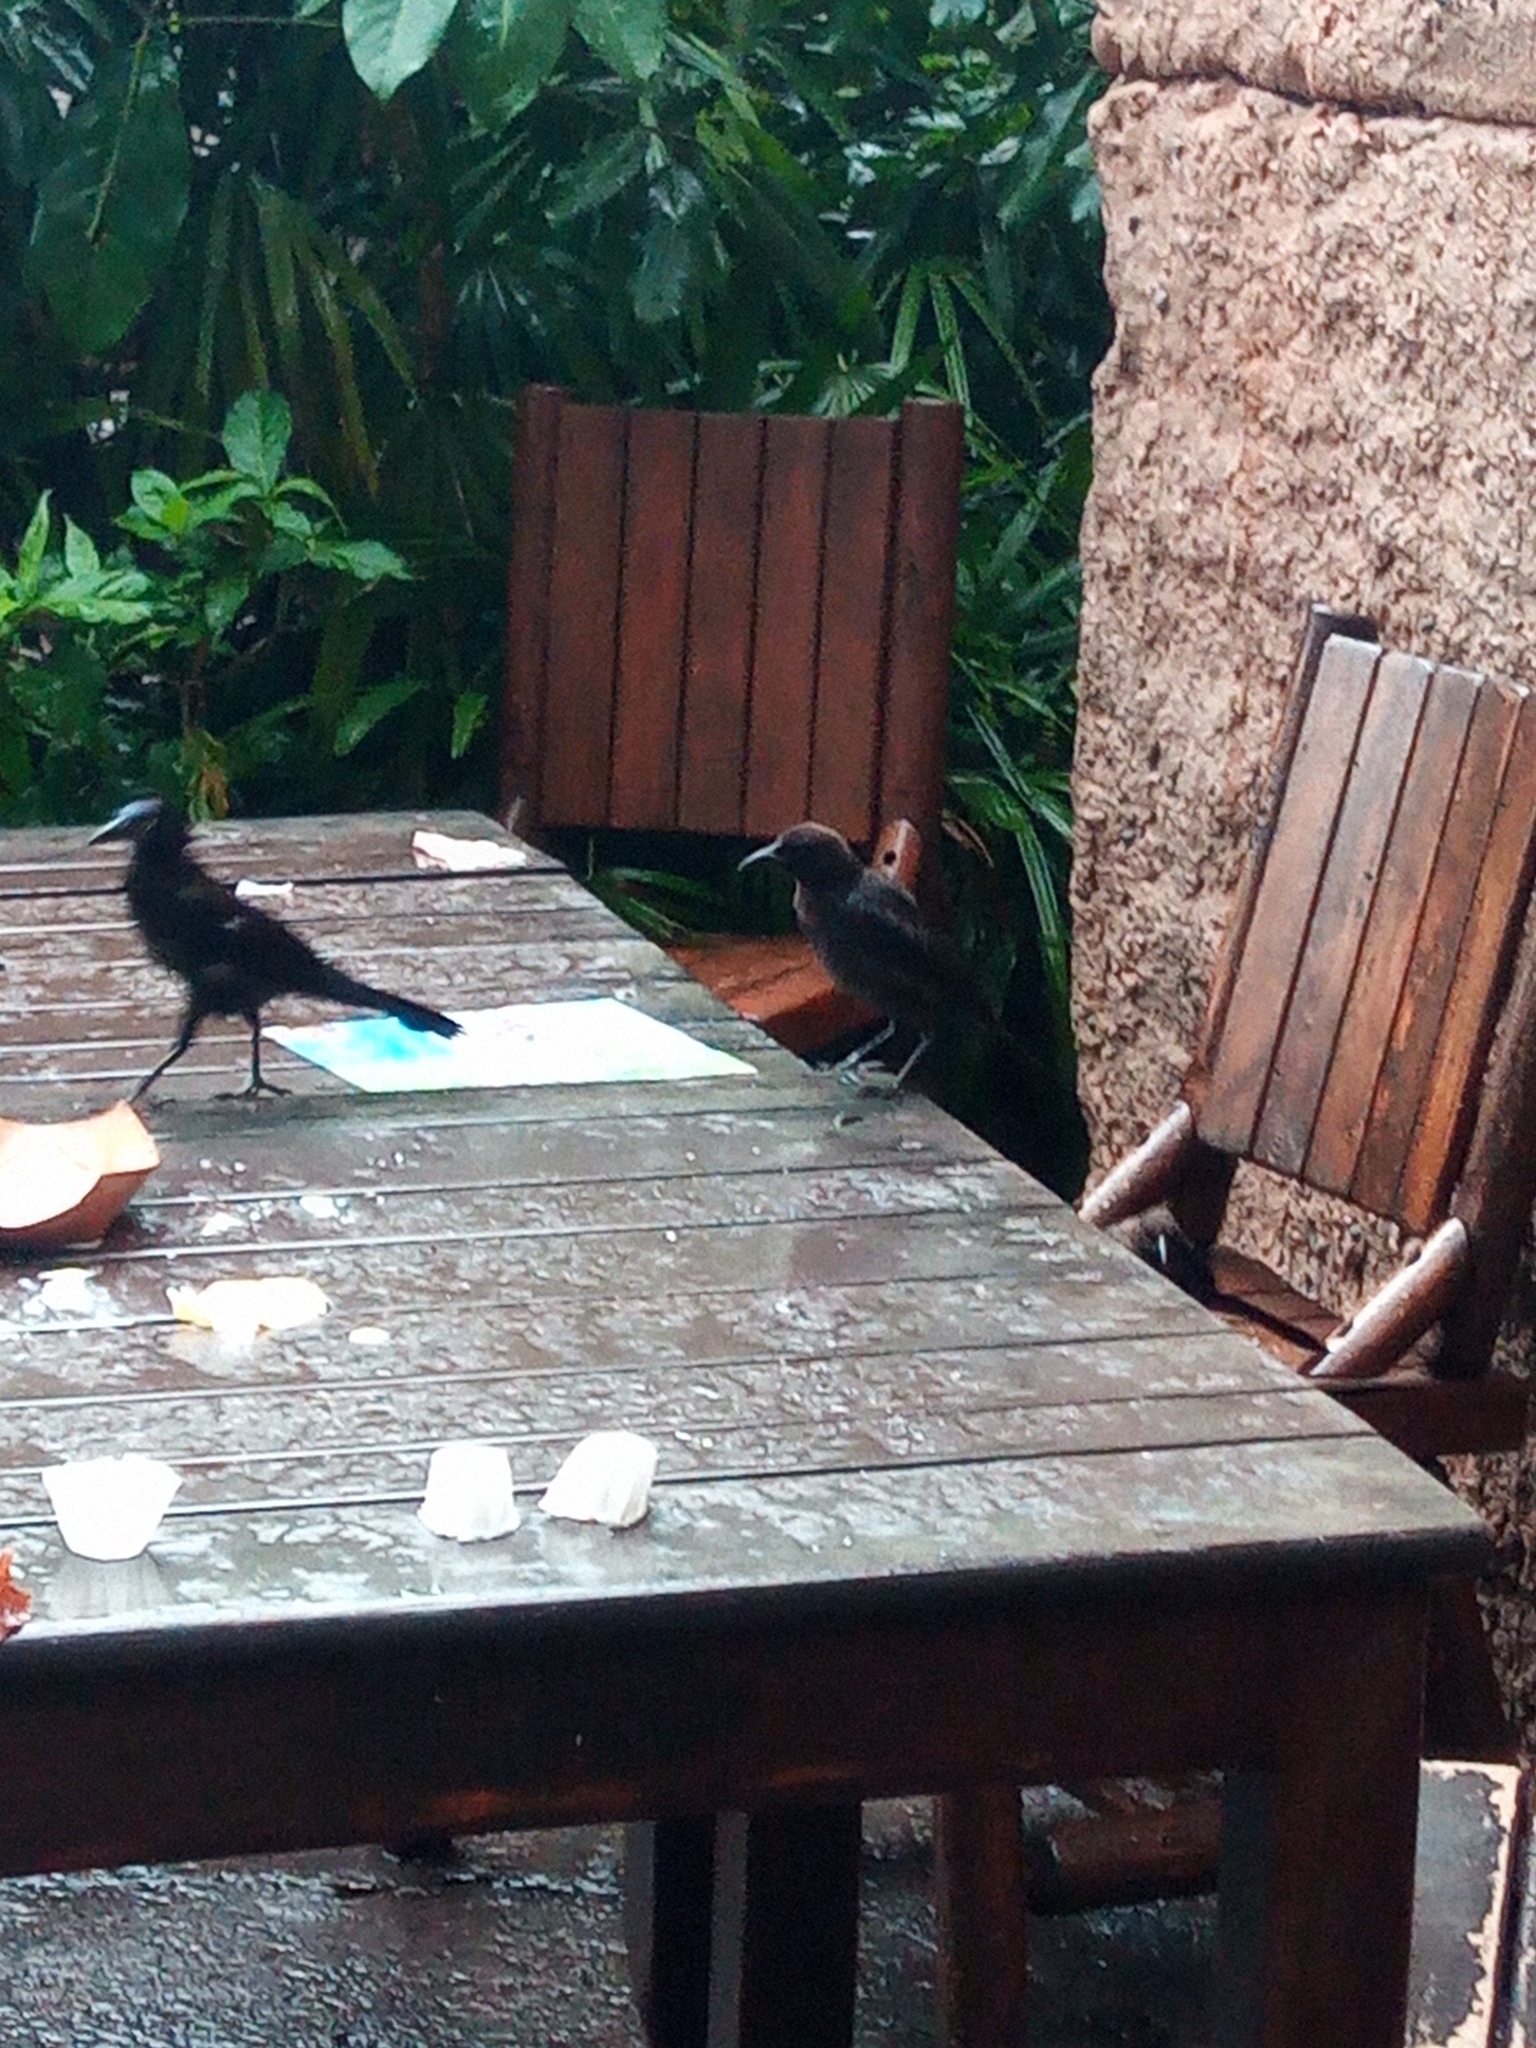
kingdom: Animalia
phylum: Chordata
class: Aves
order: Passeriformes
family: Icteridae
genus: Quiscalus
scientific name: Quiscalus quiscula
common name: Common grackle
